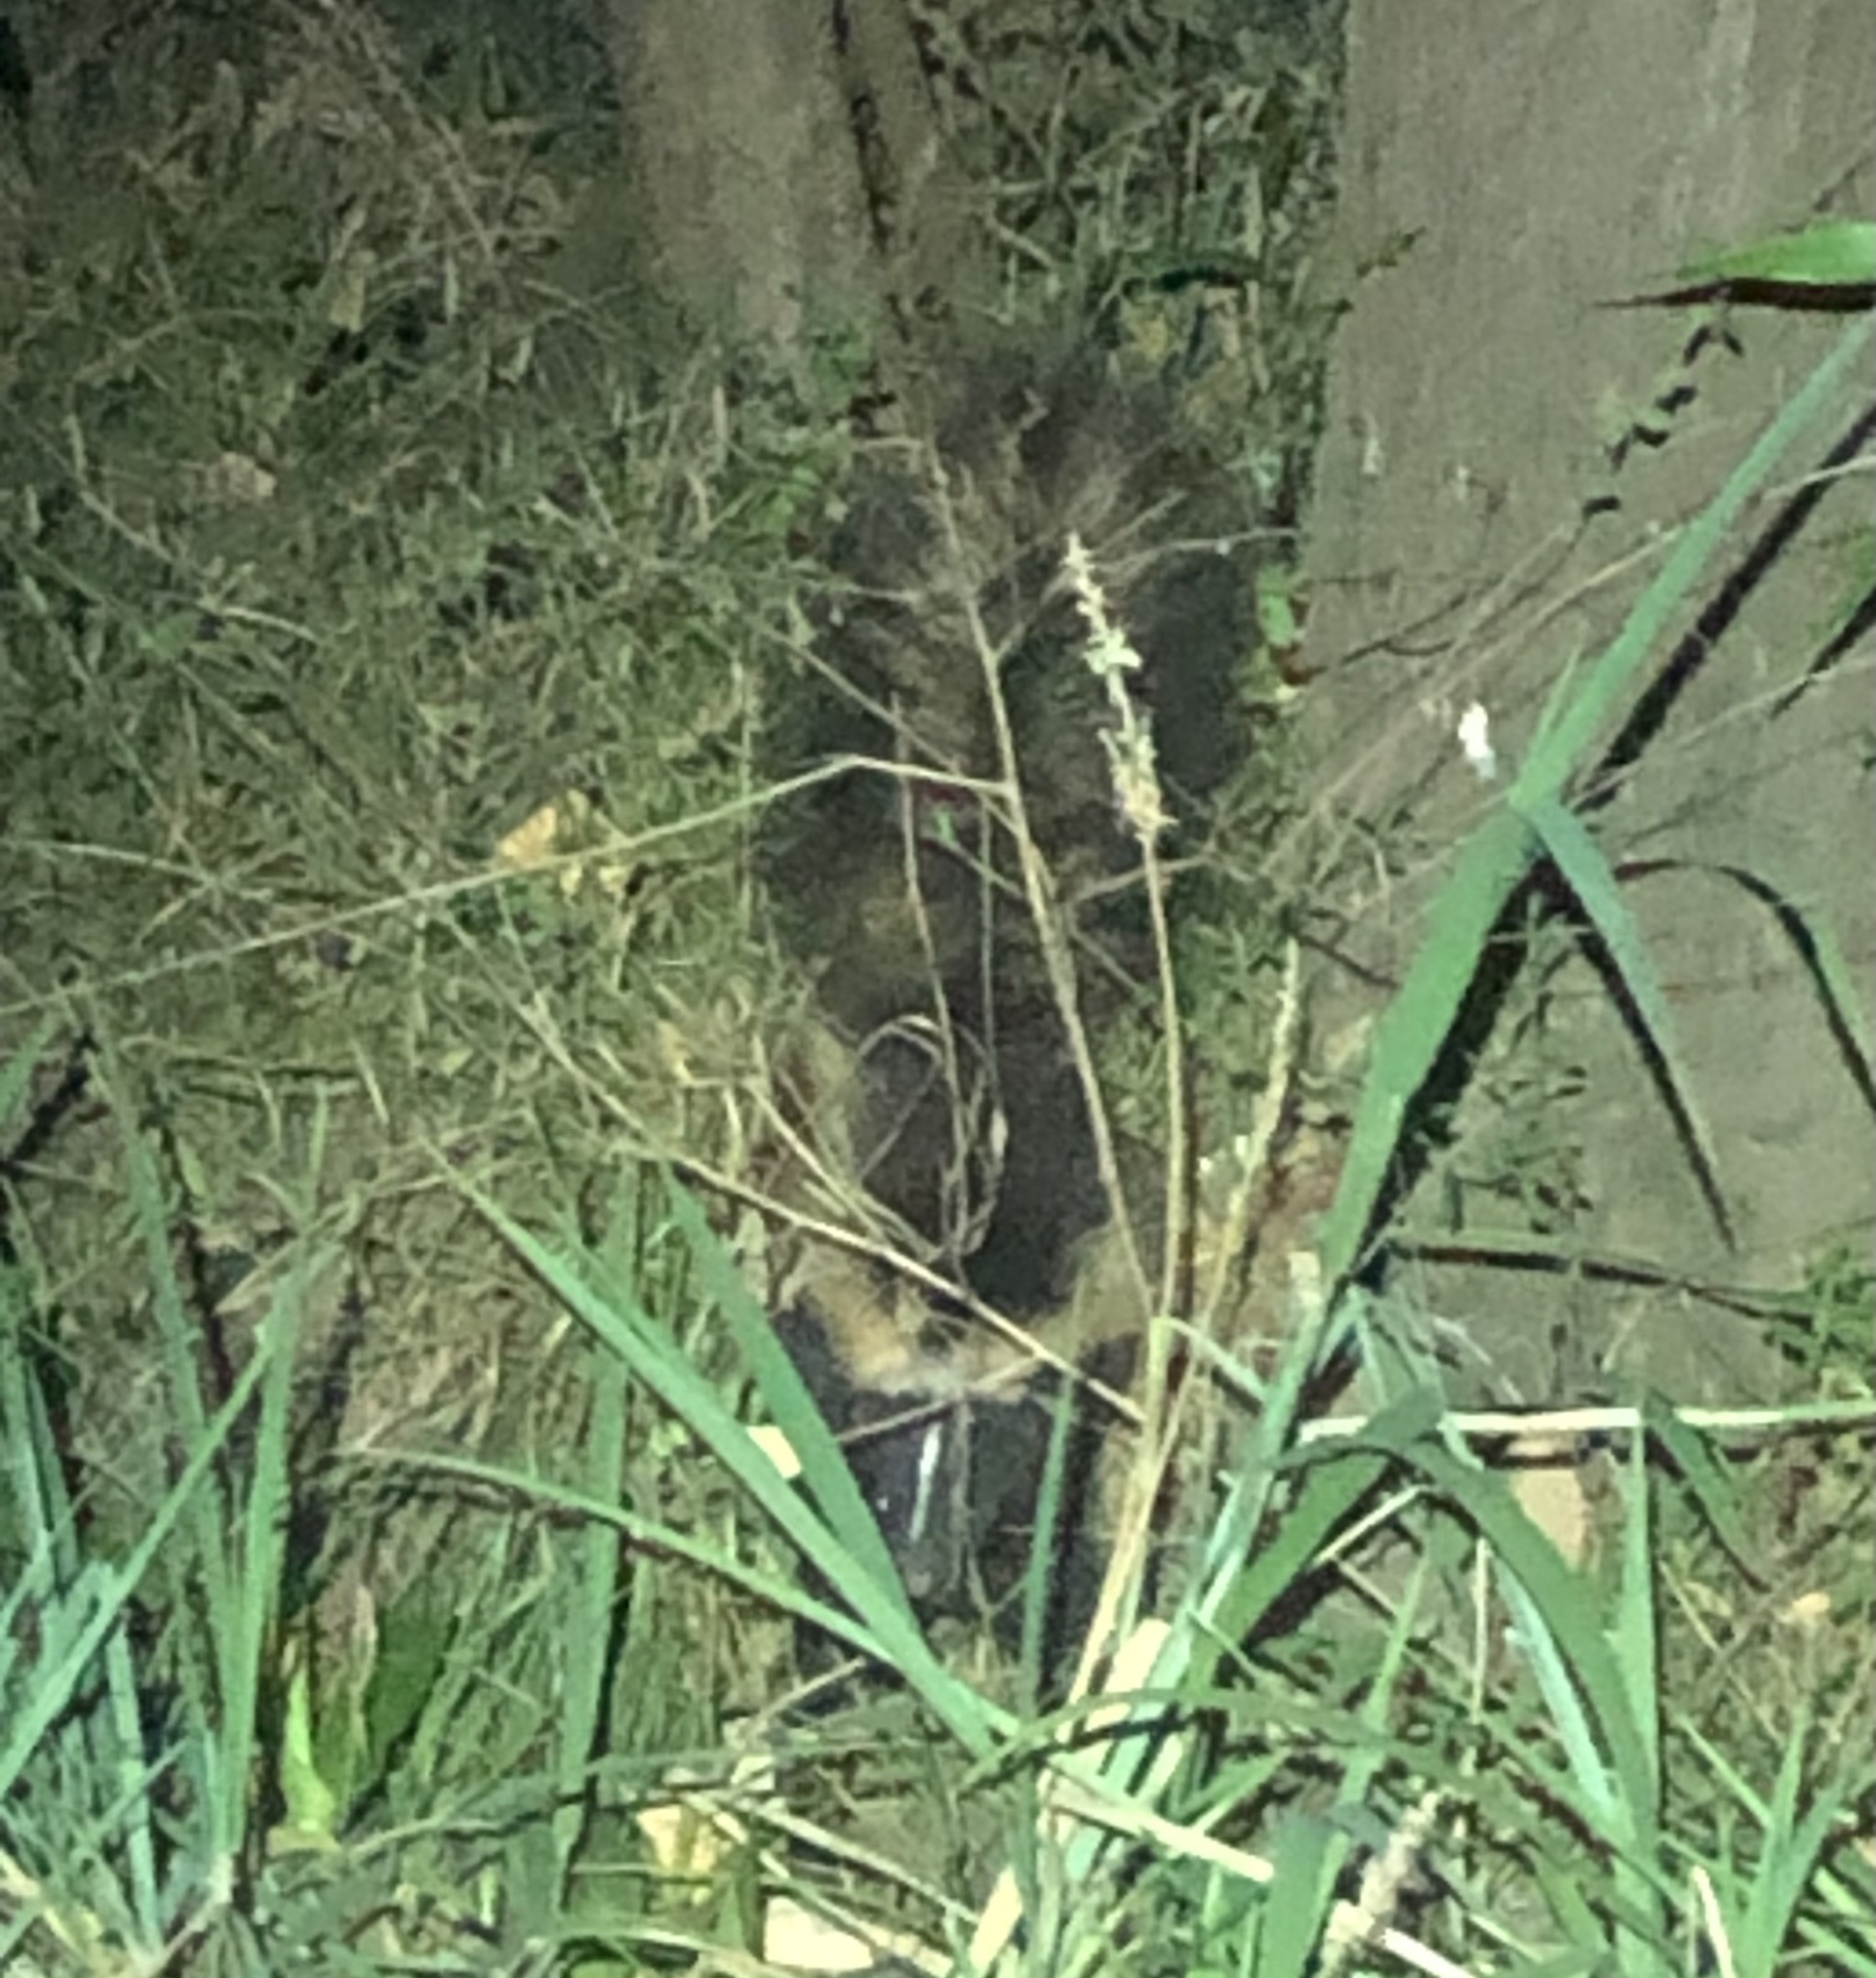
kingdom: Animalia
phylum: Chordata
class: Mammalia
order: Carnivora
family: Mephitidae
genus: Mephitis
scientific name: Mephitis mephitis
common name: Striped skunk
